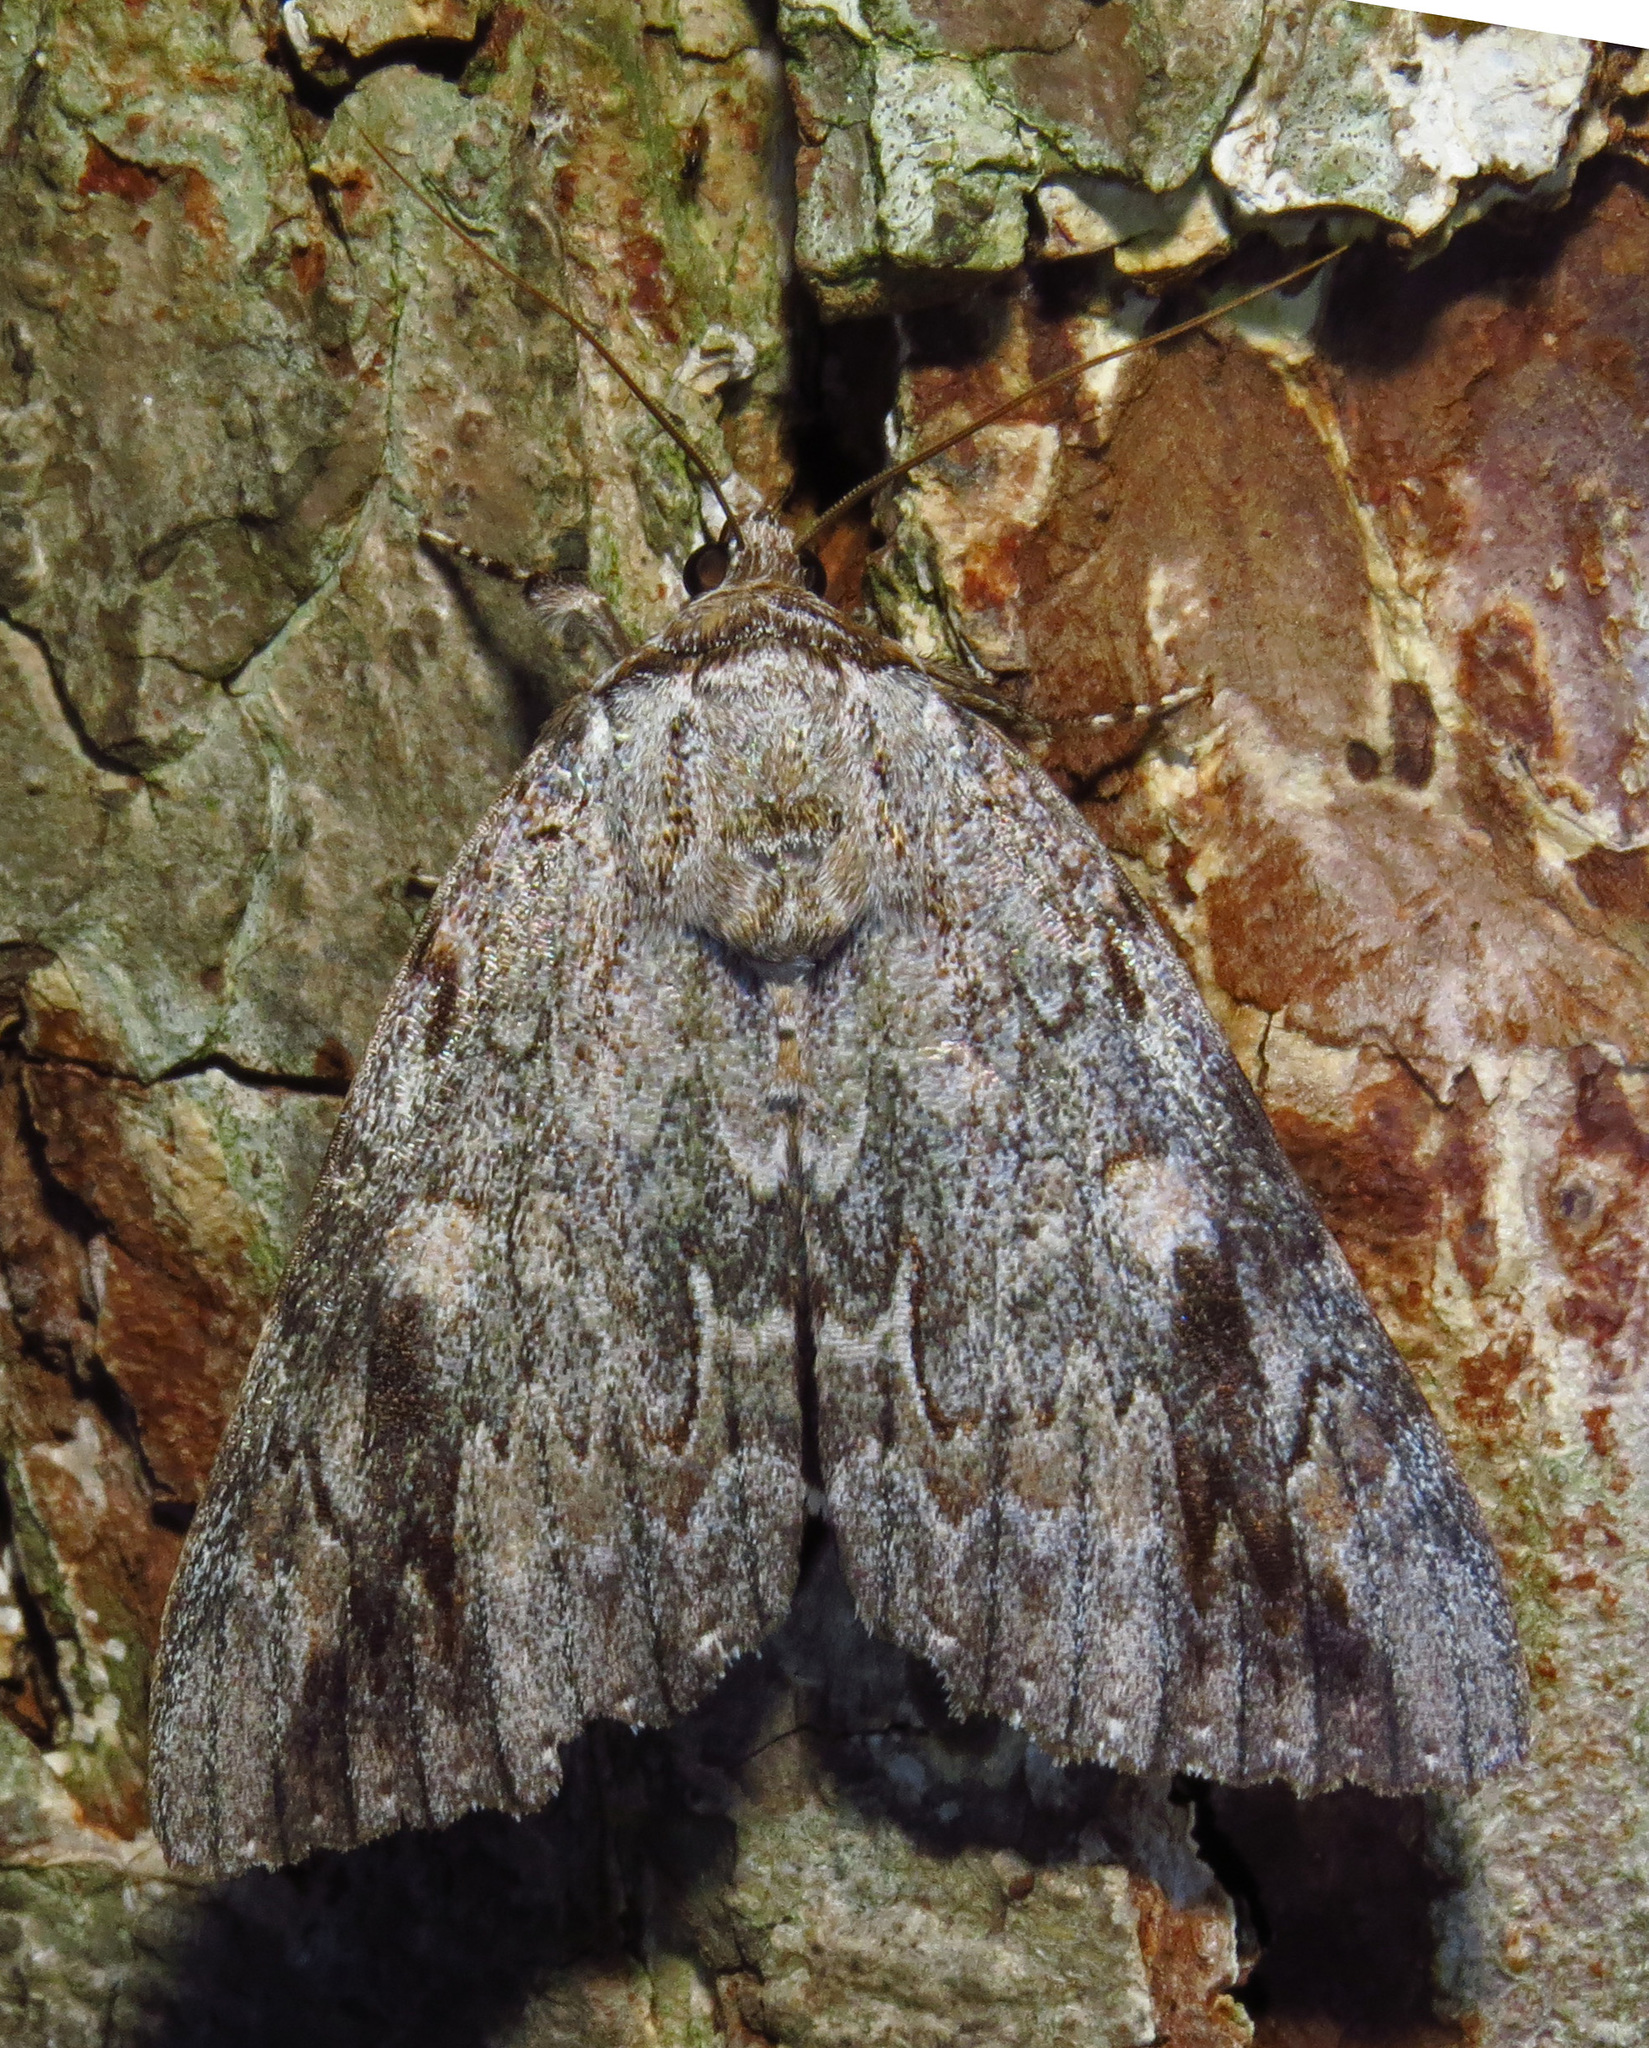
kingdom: Animalia
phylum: Arthropoda
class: Insecta
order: Lepidoptera
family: Erebidae
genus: Catocala
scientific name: Catocala maestosa
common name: Sad underwing
